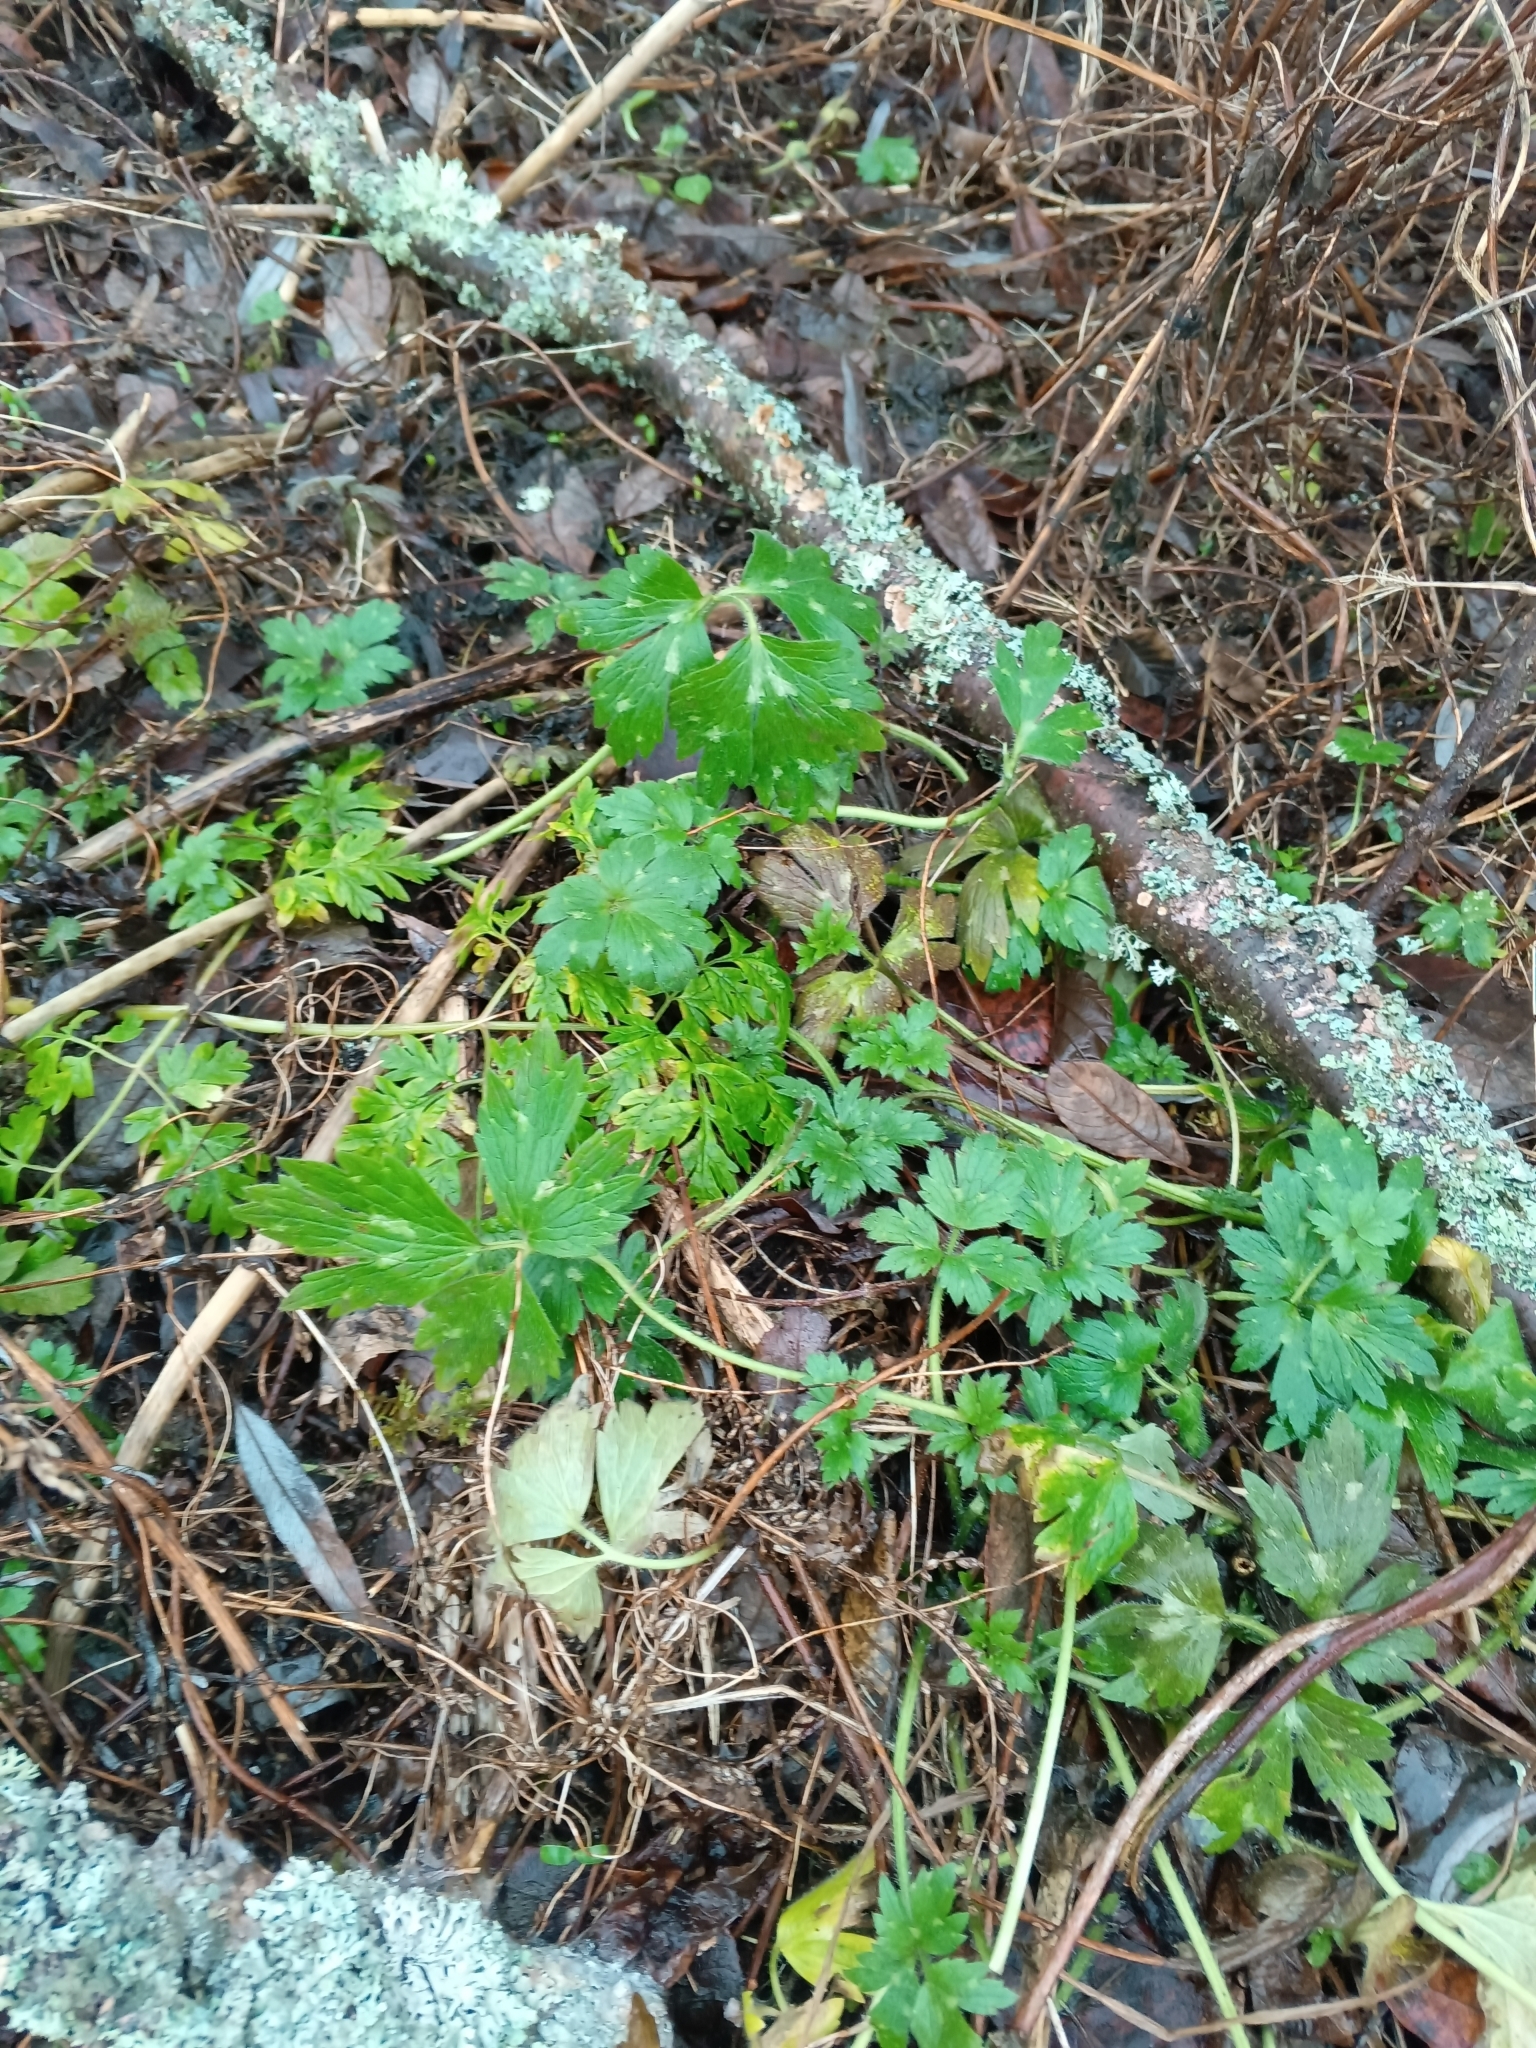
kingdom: Plantae
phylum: Tracheophyta
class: Magnoliopsida
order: Ranunculales
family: Ranunculaceae
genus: Ranunculus
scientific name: Ranunculus repens
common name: Creeping buttercup
